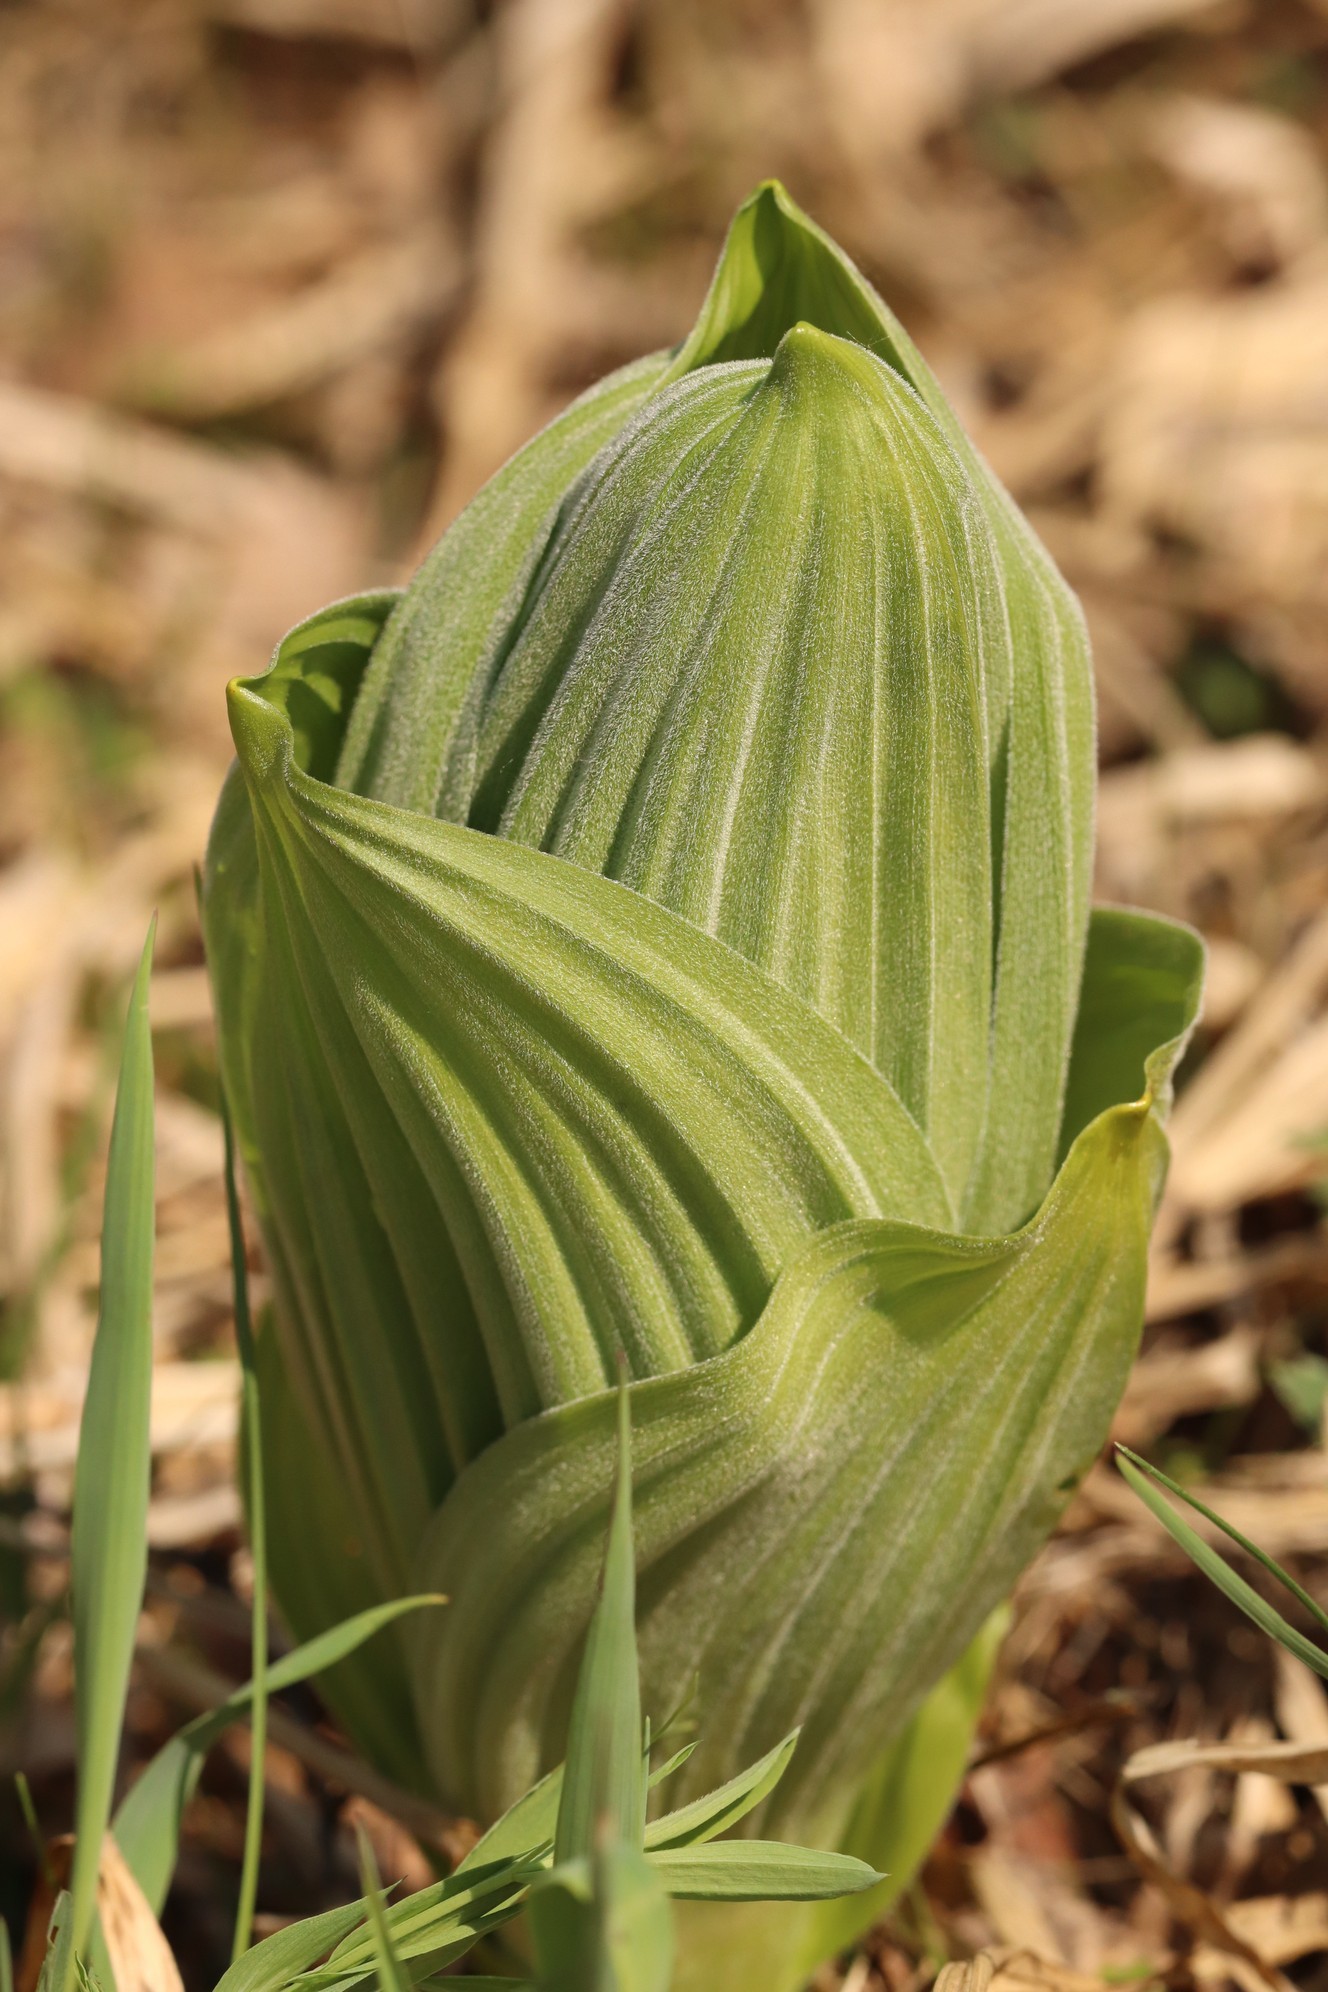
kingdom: Plantae
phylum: Tracheophyta
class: Liliopsida
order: Liliales
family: Melanthiaceae
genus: Veratrum
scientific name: Veratrum lobelianum
